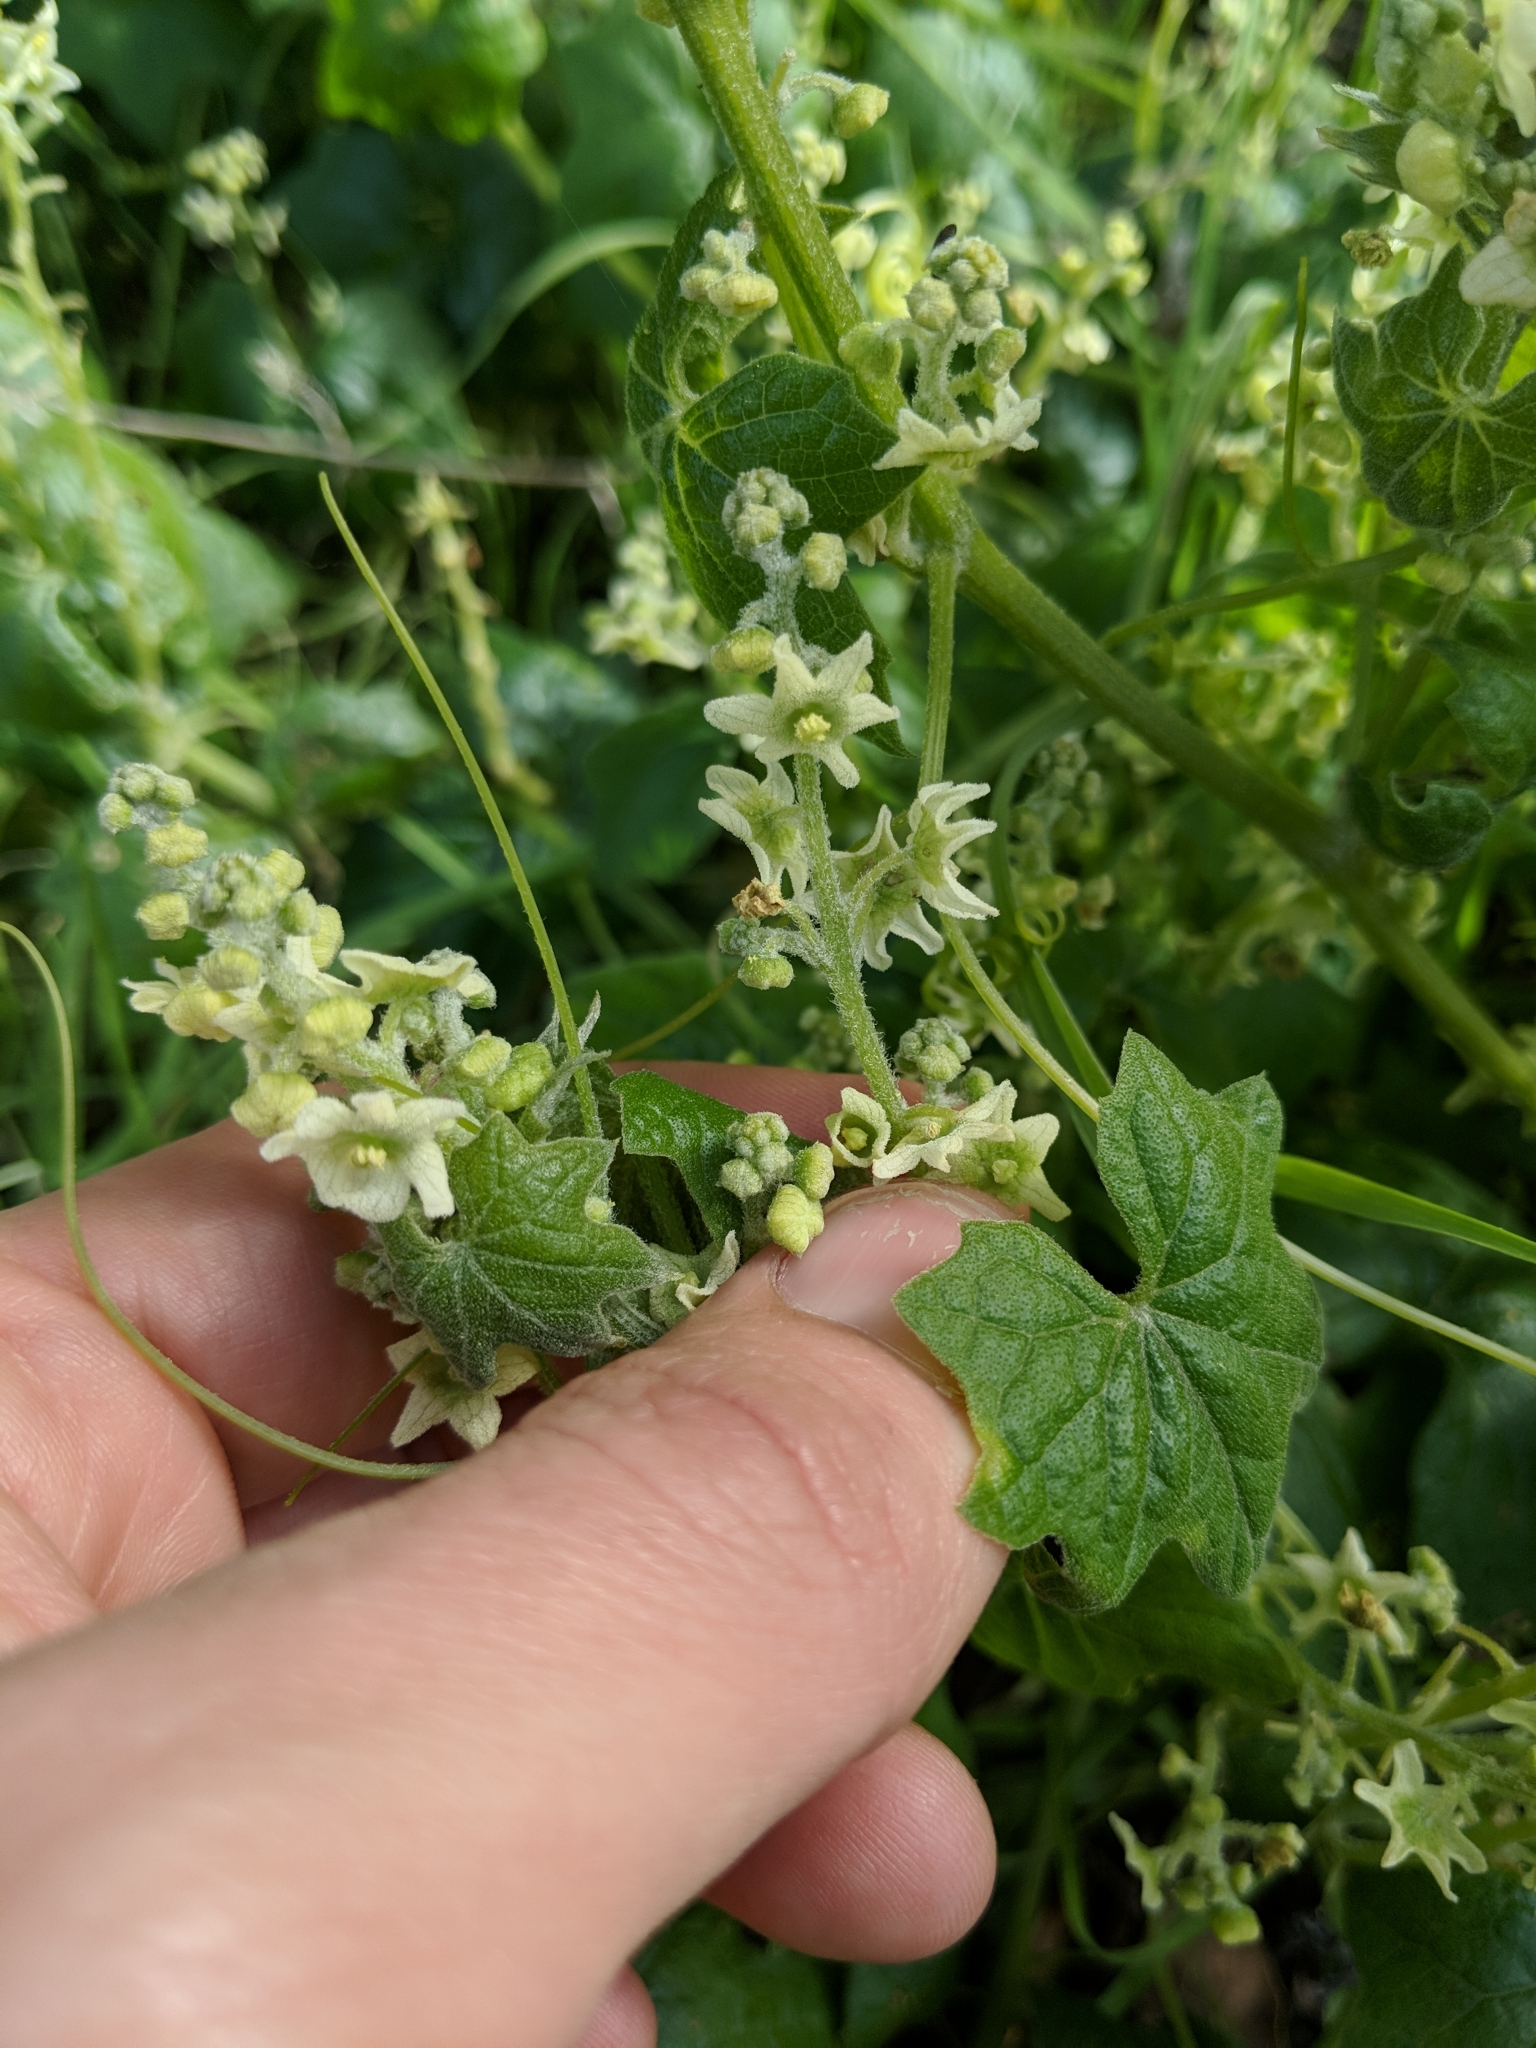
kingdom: Plantae
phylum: Tracheophyta
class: Magnoliopsida
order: Cucurbitales
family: Cucurbitaceae
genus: Marah
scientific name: Marah fabacea
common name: California manroot
